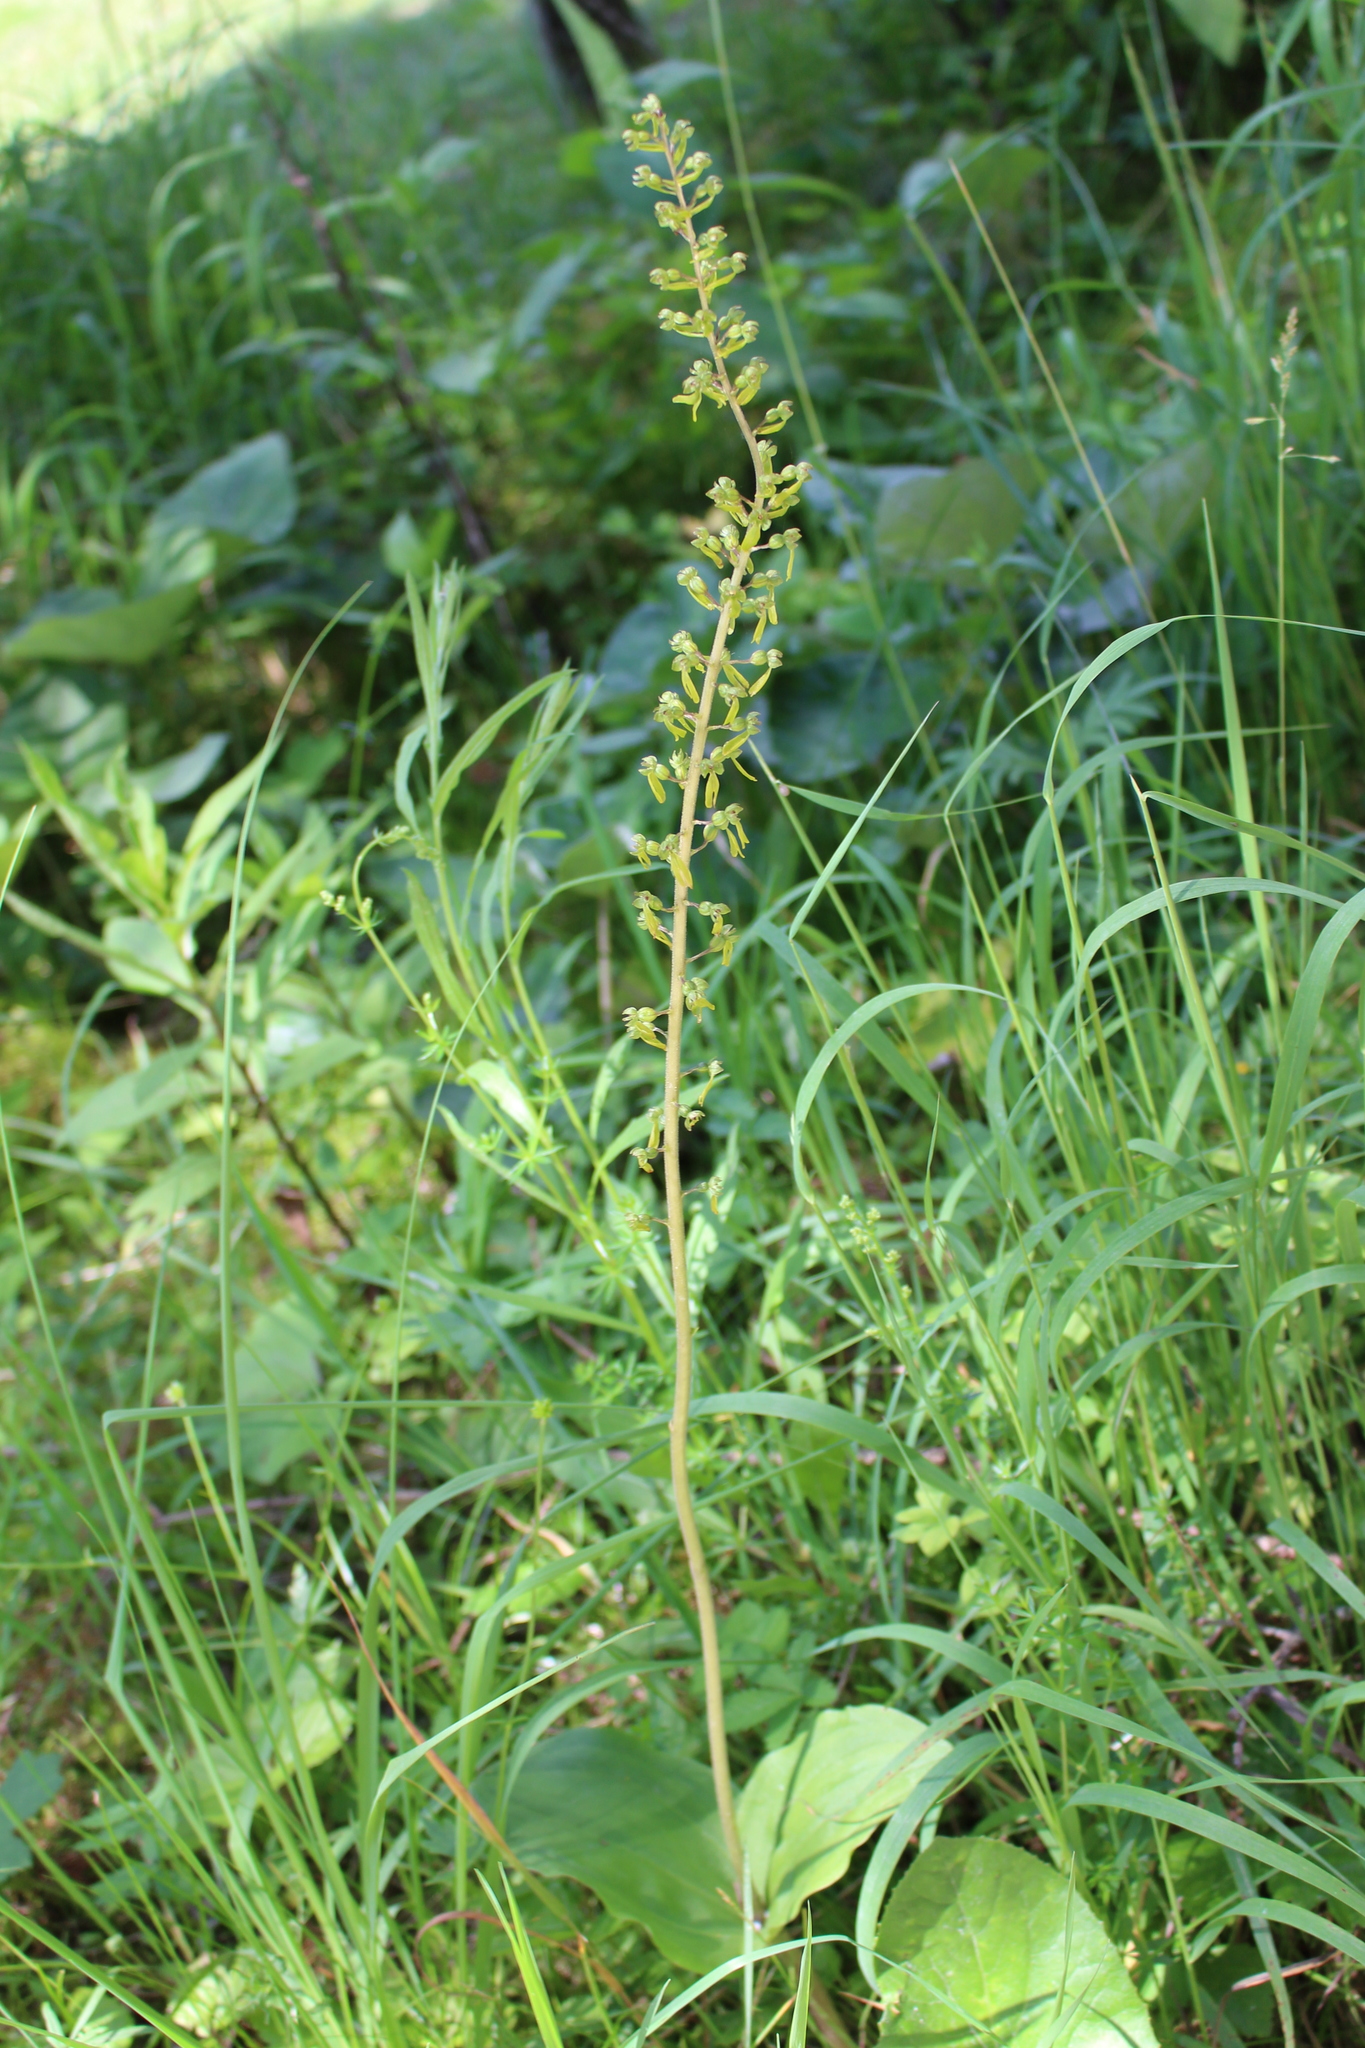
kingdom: Plantae
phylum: Tracheophyta
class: Liliopsida
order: Asparagales
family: Orchidaceae
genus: Neottia
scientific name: Neottia ovata
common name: Common twayblade
